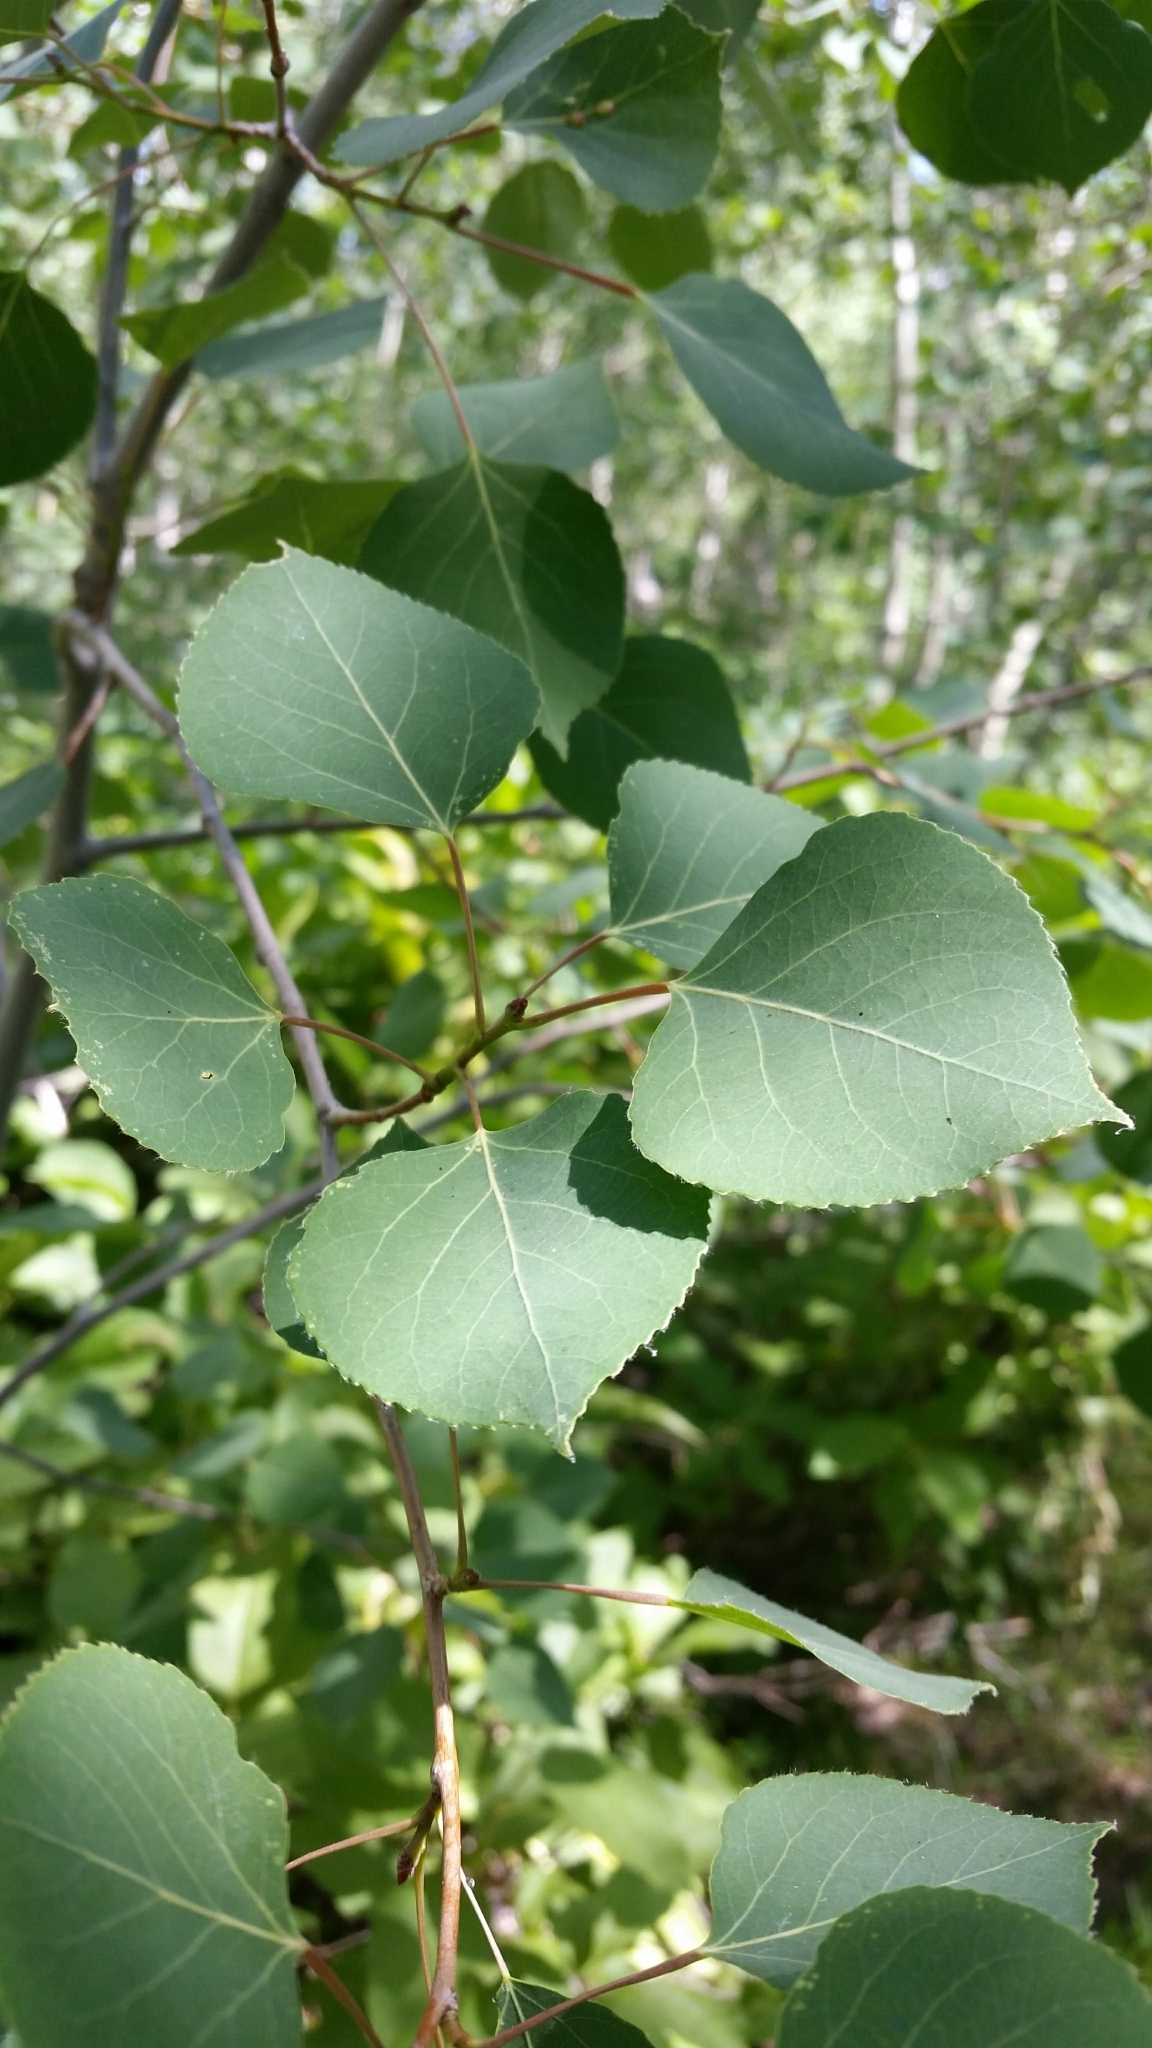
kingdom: Plantae
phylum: Tracheophyta
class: Magnoliopsida
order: Malpighiales
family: Salicaceae
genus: Populus
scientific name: Populus tremuloides
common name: Quaking aspen
